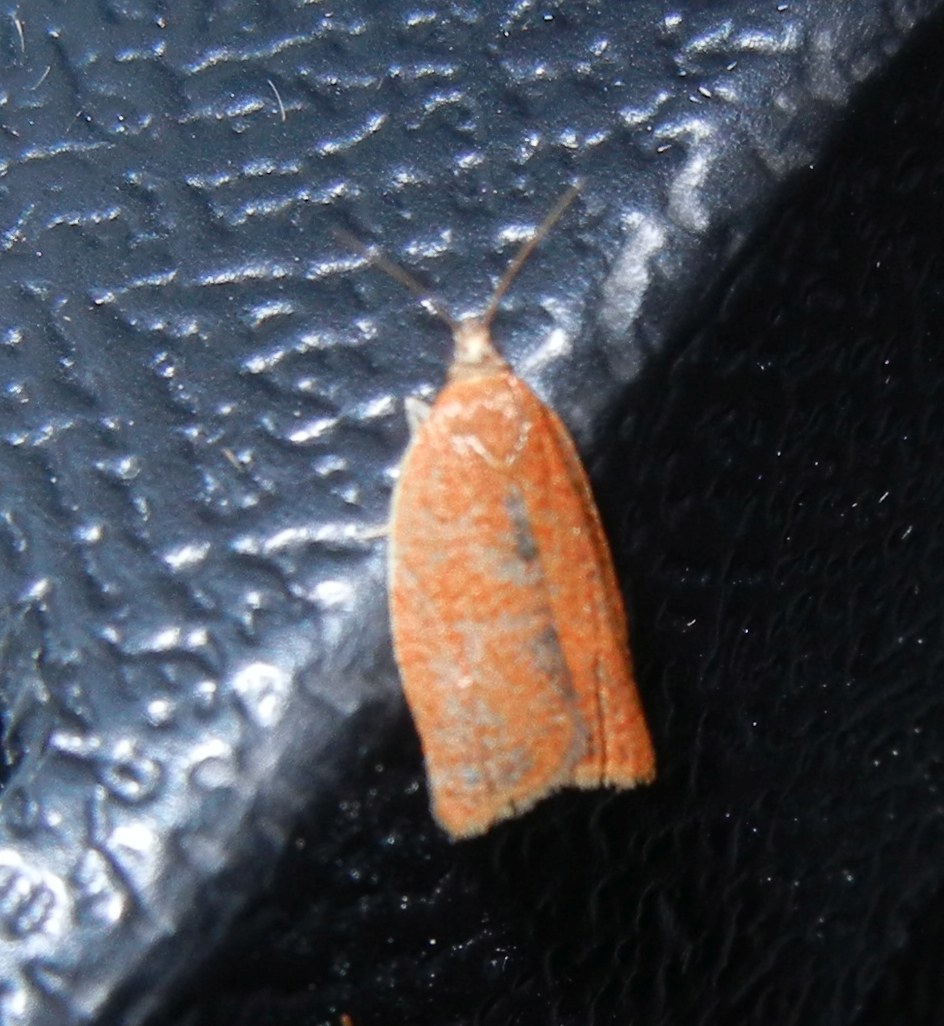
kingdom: Animalia
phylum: Arthropoda
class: Insecta
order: Lepidoptera
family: Tortricidae
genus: Clepsis
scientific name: Clepsis consimilana
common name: Privet tortrix
